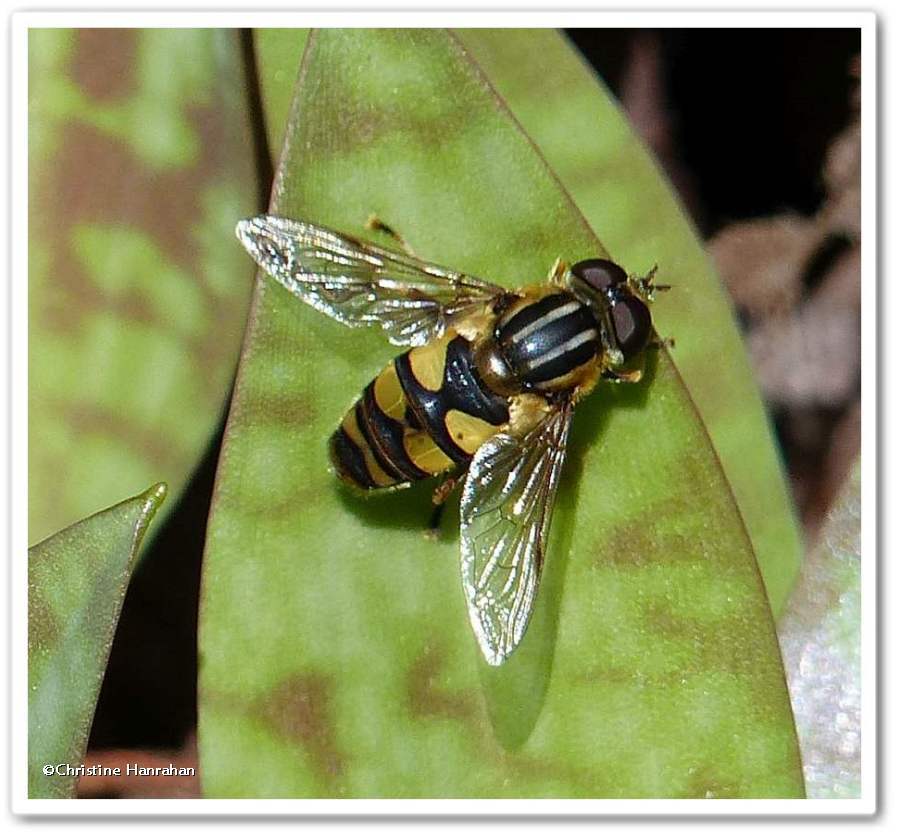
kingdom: Animalia
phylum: Arthropoda
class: Insecta
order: Diptera
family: Syrphidae
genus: Helophilus
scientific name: Helophilus fasciatus
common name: Narrow-headed marsh fly
